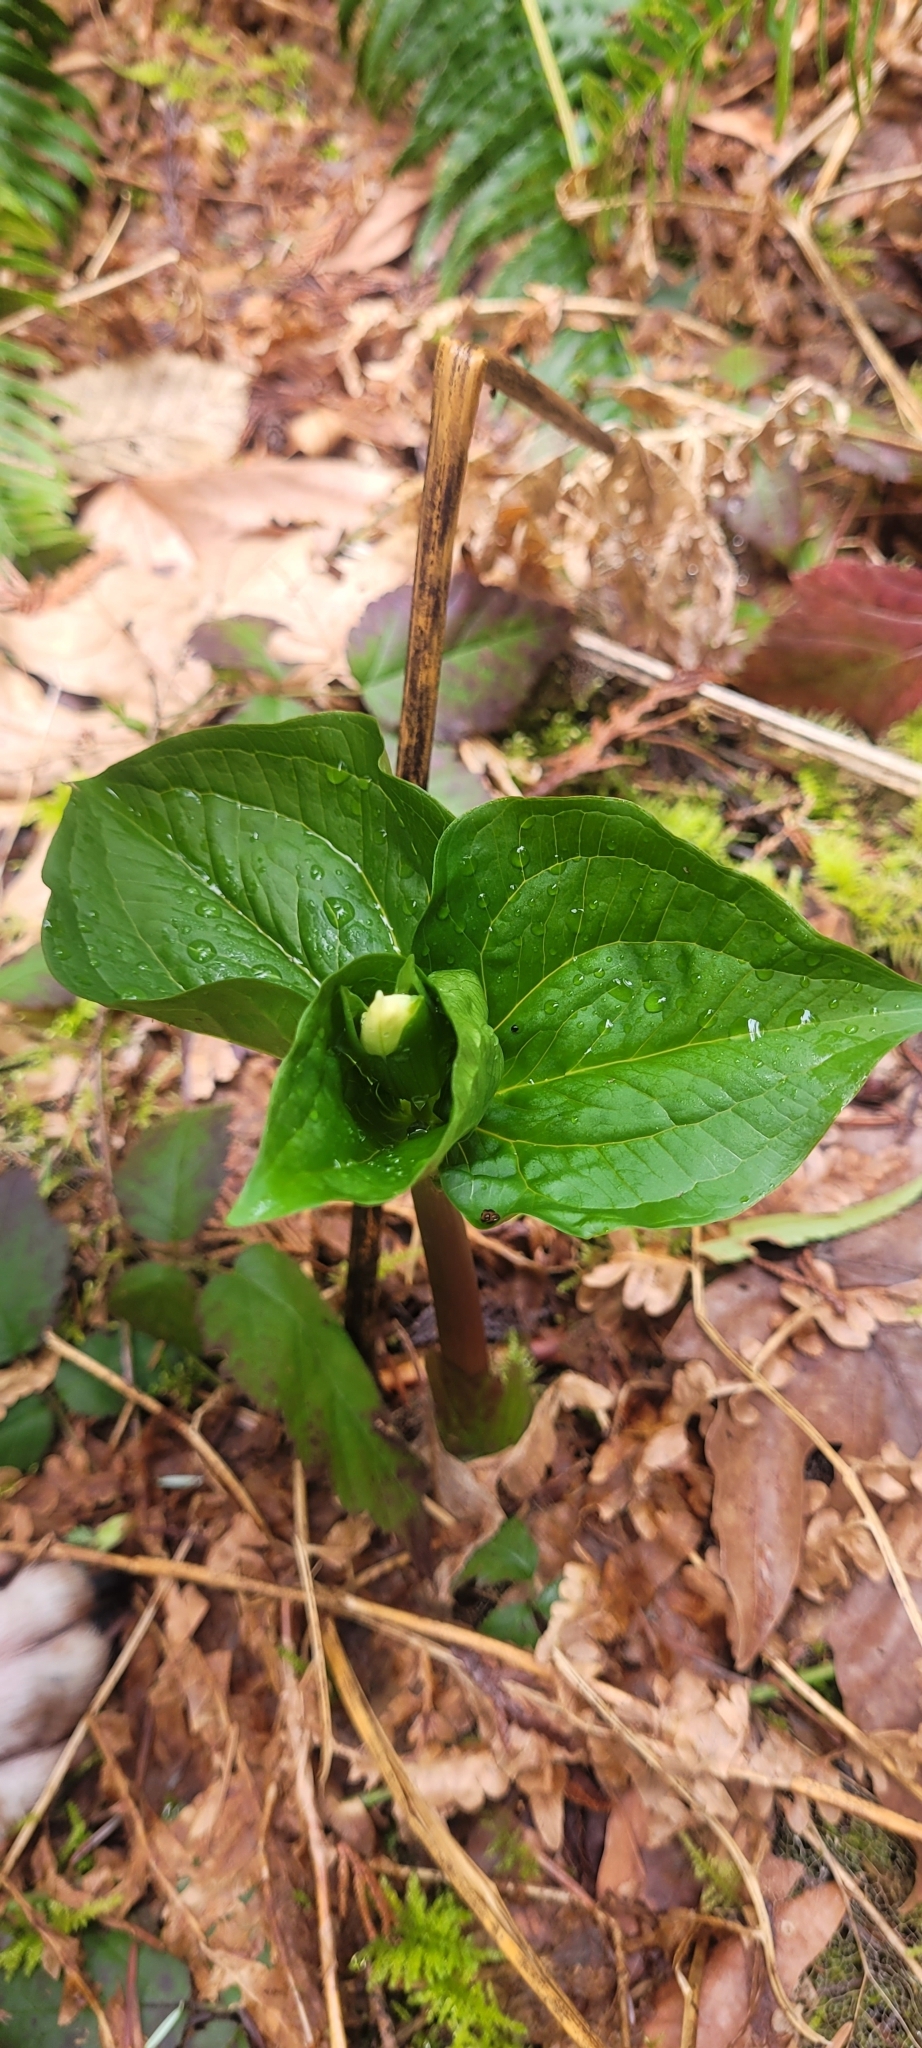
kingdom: Plantae
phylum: Tracheophyta
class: Liliopsida
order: Liliales
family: Melanthiaceae
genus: Trillium
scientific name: Trillium ovatum
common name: Pacific trillium
